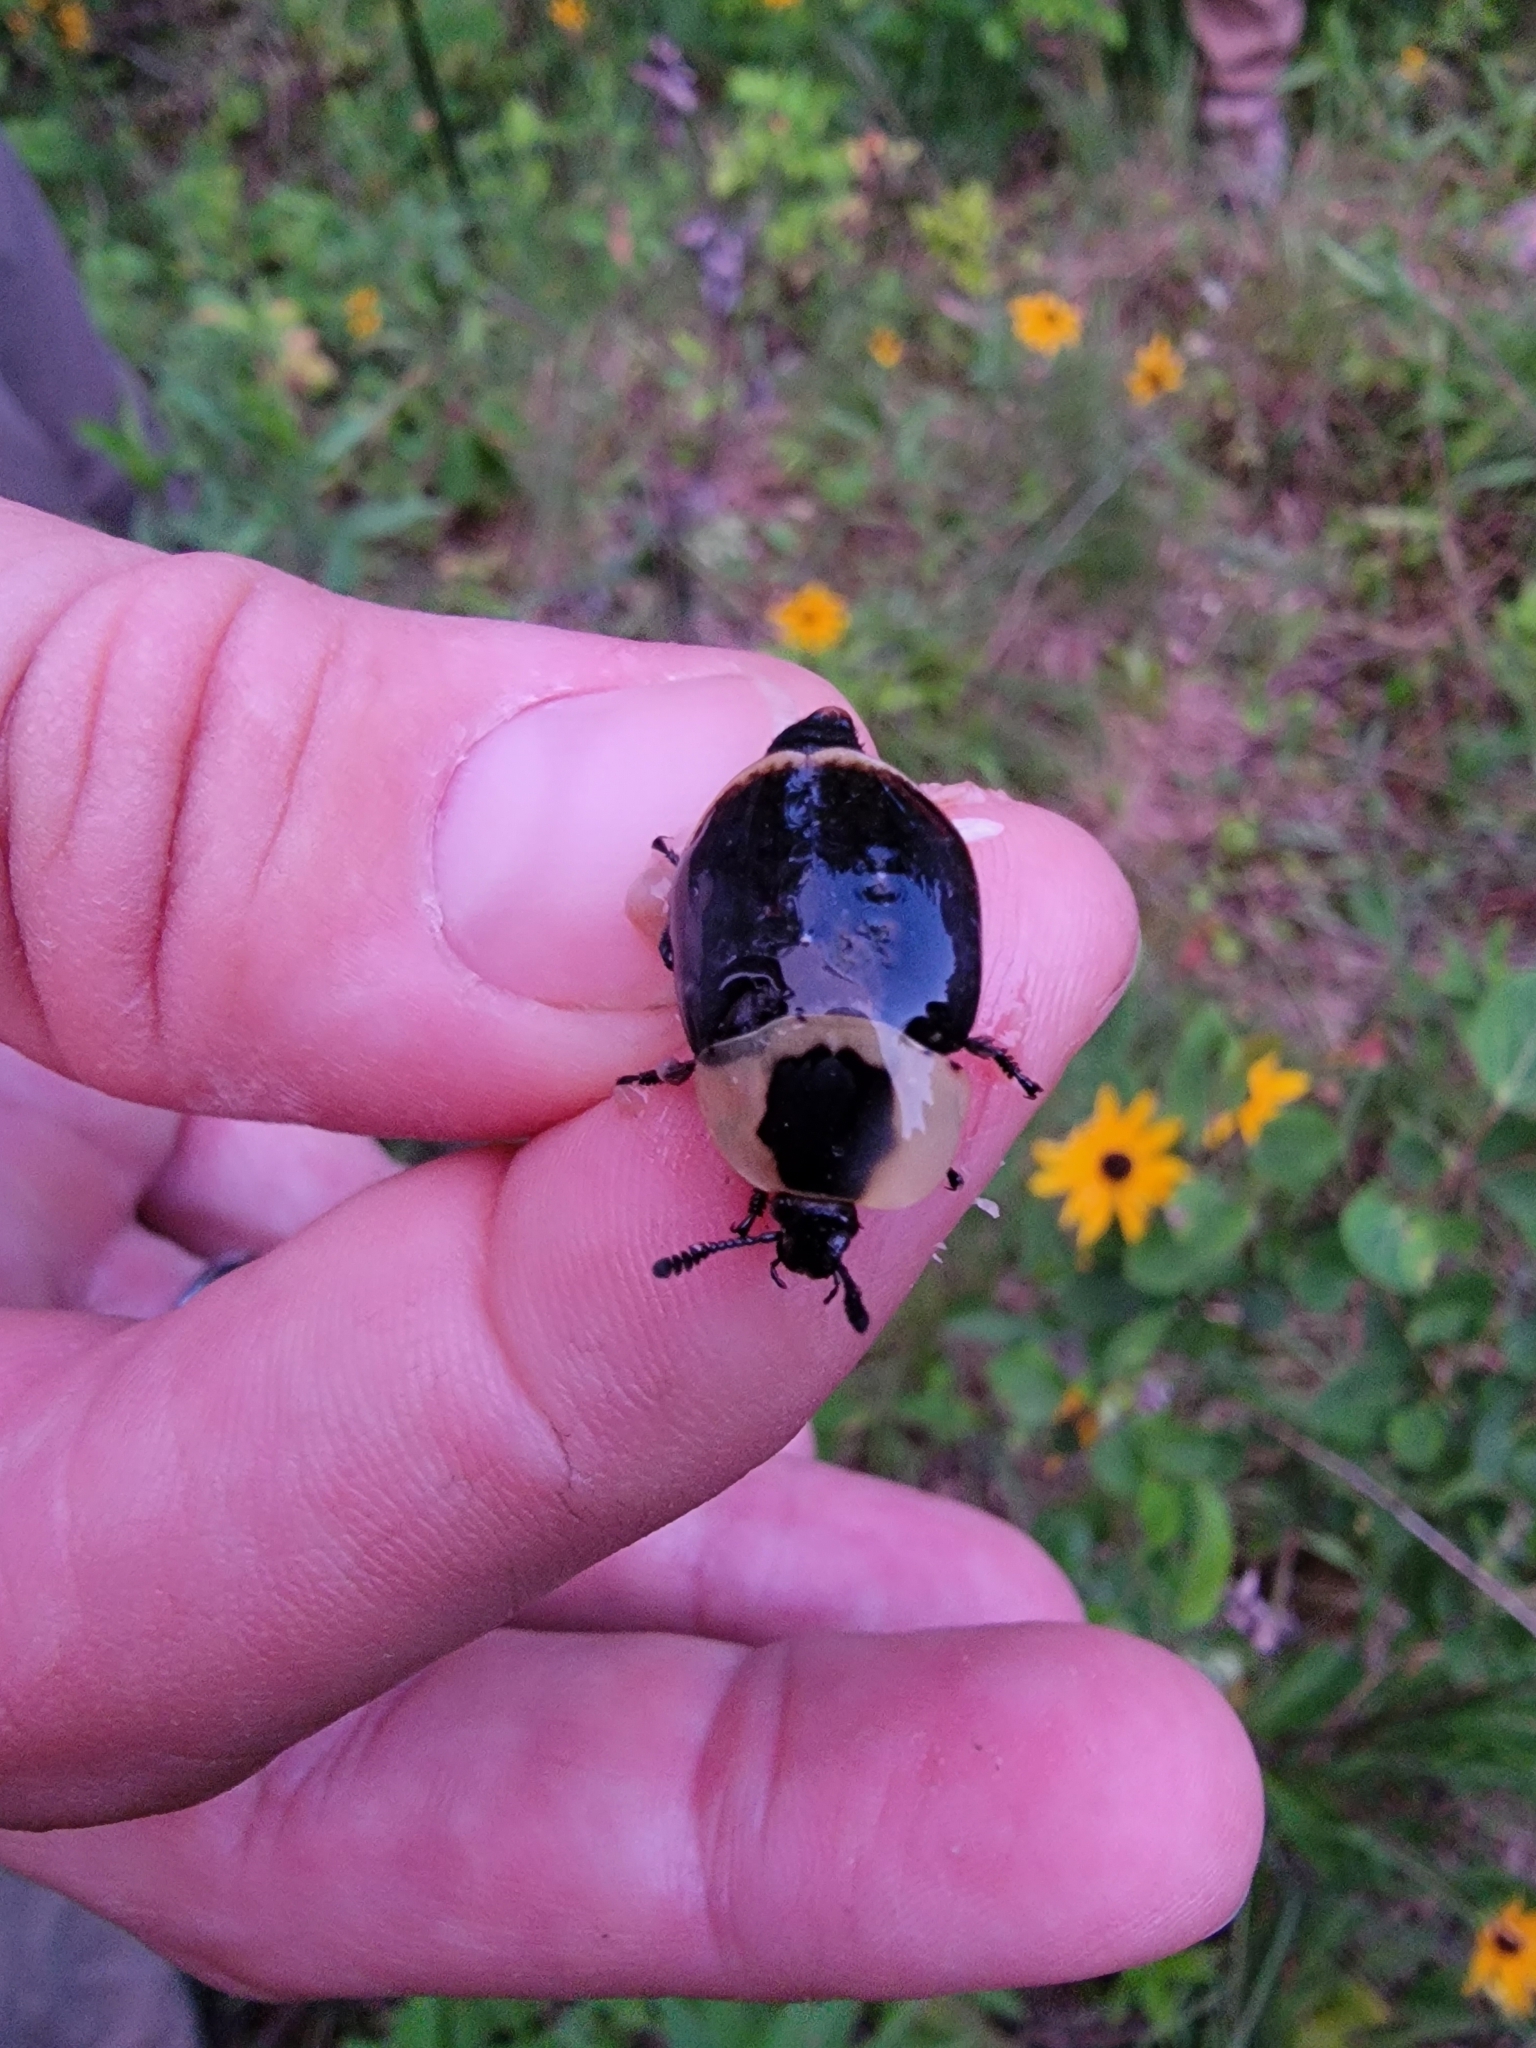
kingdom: Animalia
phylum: Arthropoda
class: Insecta
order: Coleoptera
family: Staphylinidae
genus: Necrophila
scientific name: Necrophila americana
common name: American carrion beetle
